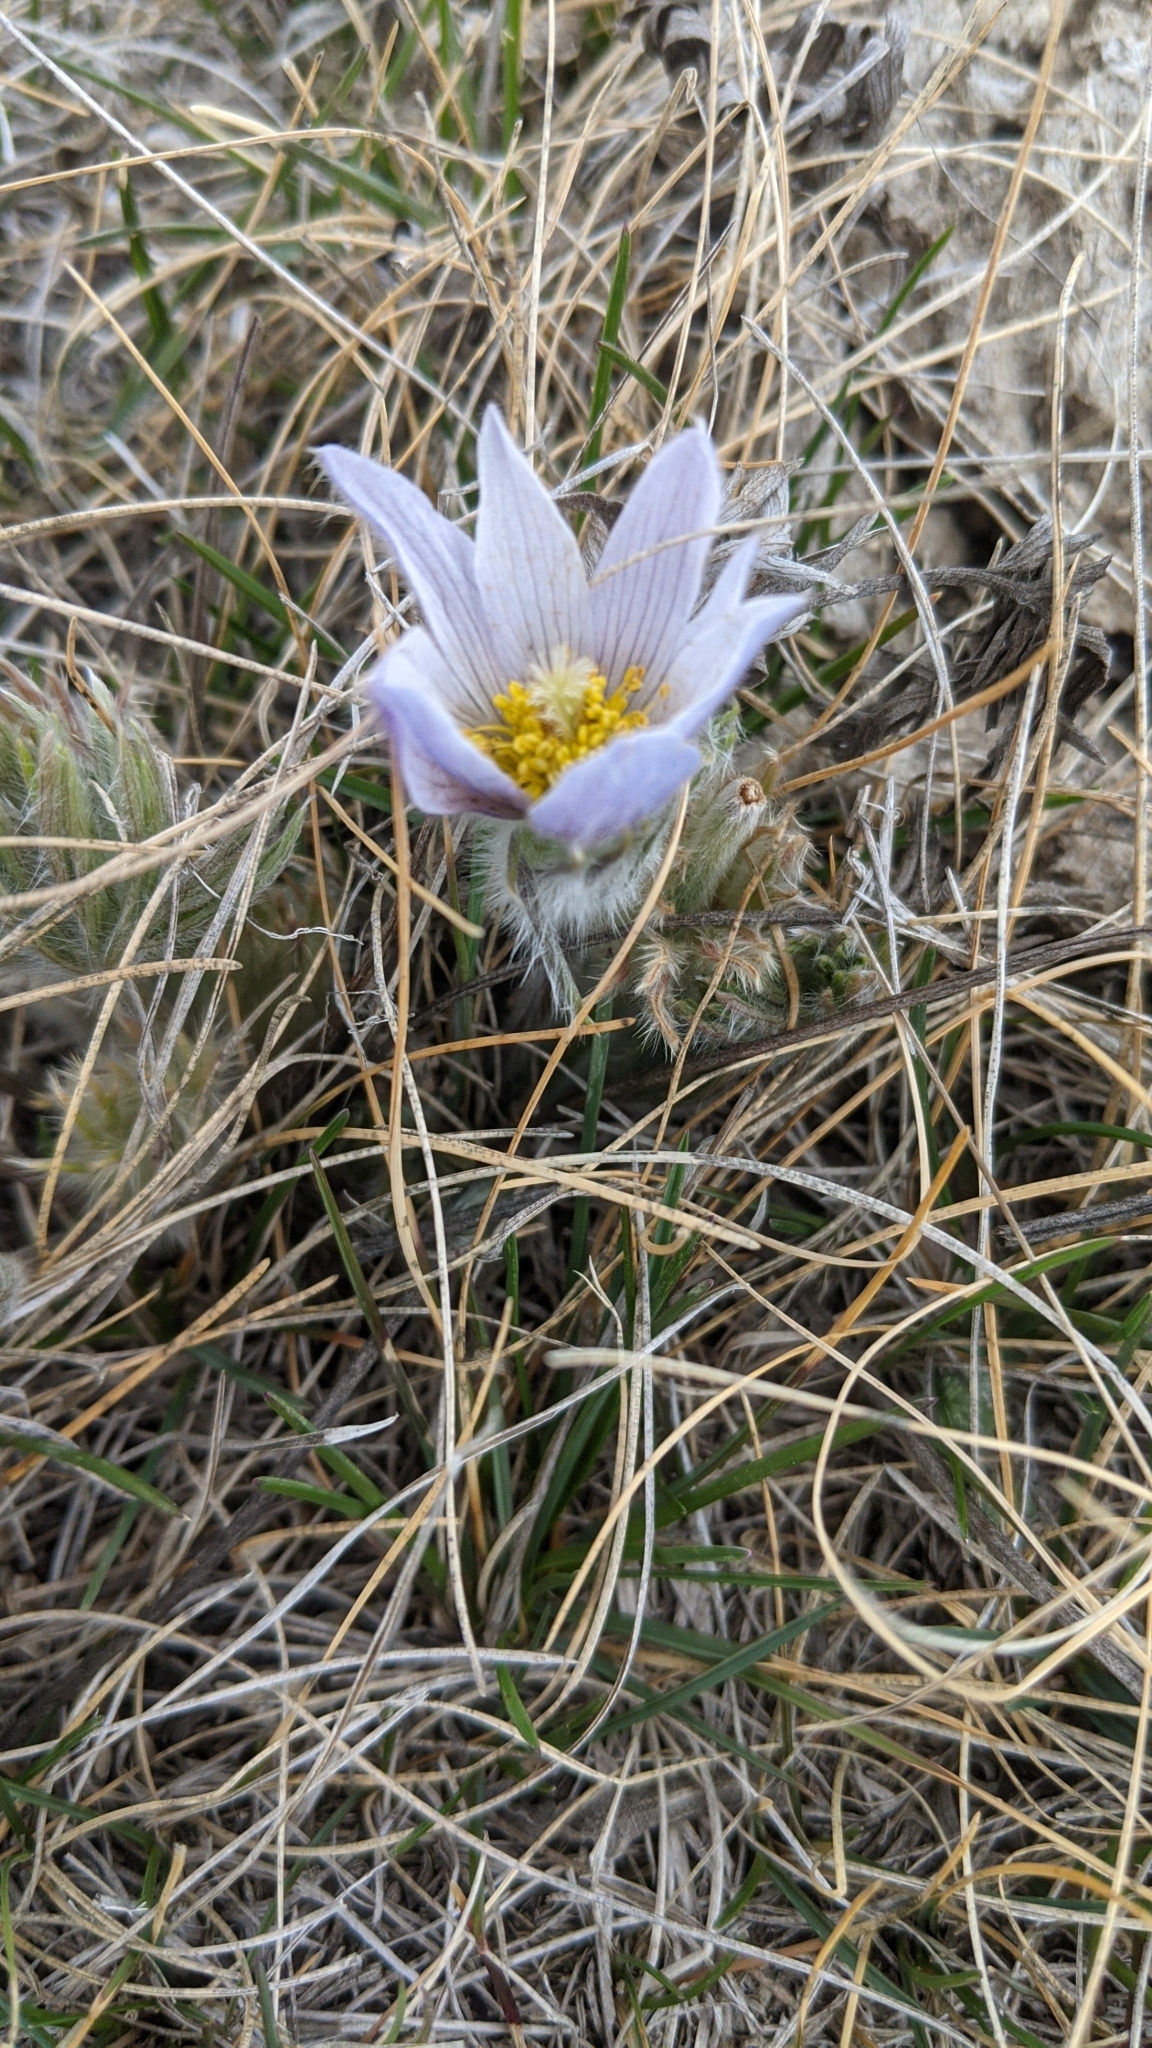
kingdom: Plantae
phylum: Tracheophyta
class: Magnoliopsida
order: Ranunculales
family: Ranunculaceae
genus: Pulsatilla
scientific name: Pulsatilla nuttalliana
